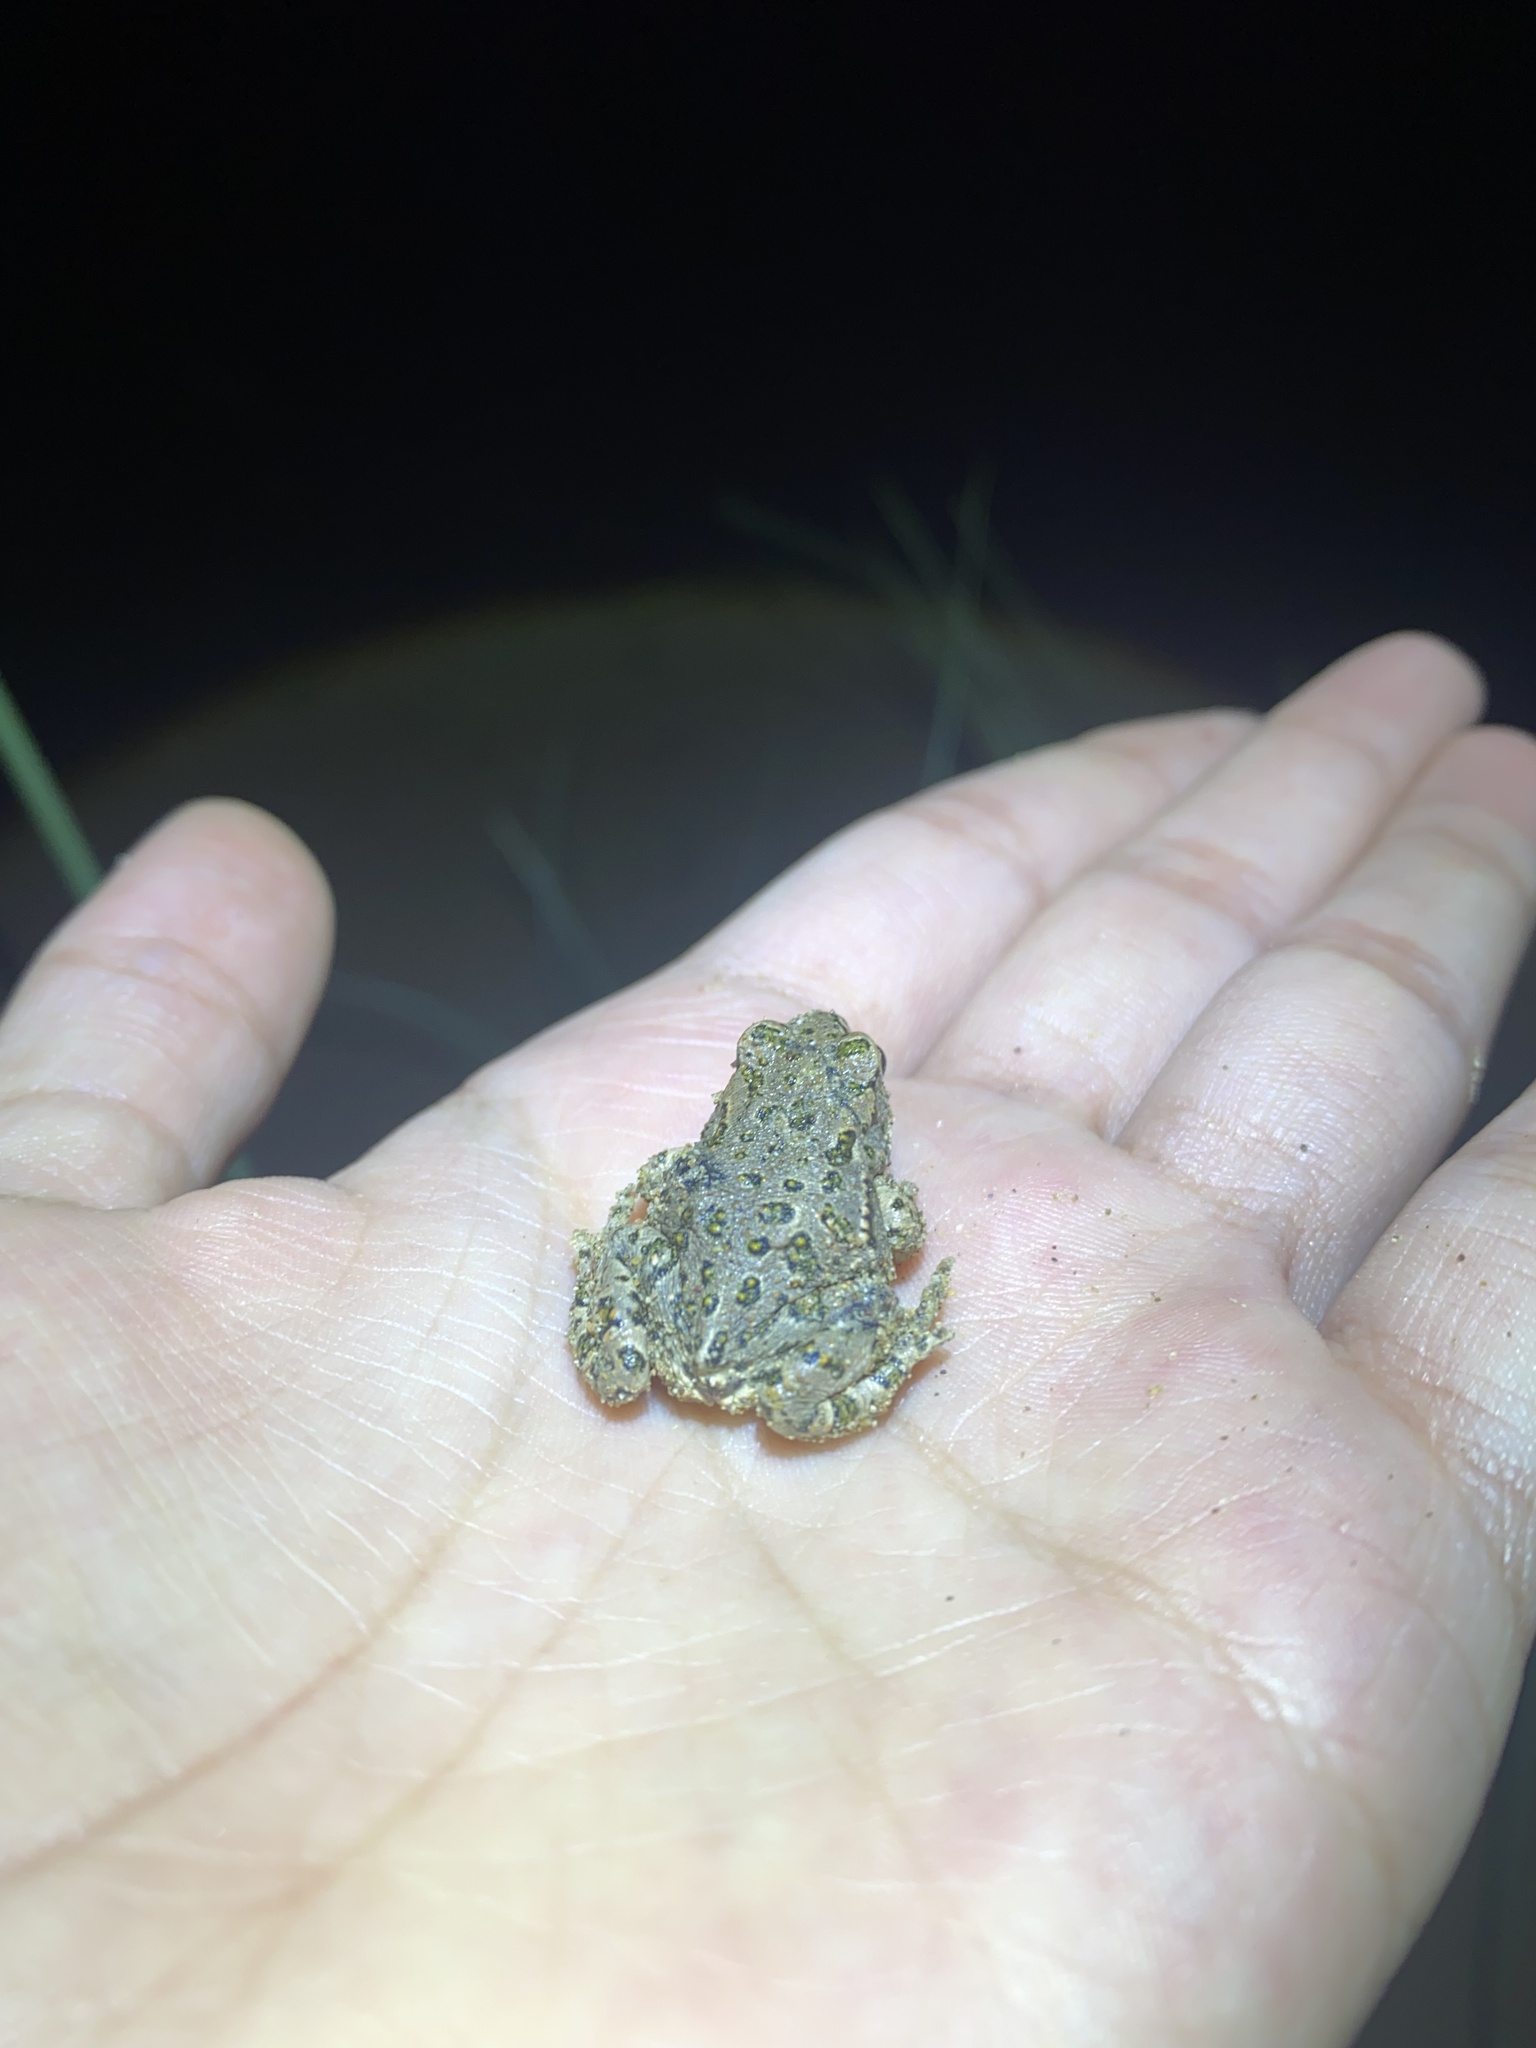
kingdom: Animalia
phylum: Chordata
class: Amphibia
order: Anura
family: Bufonidae
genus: Bufotes
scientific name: Bufotes viridis
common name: European green toad
